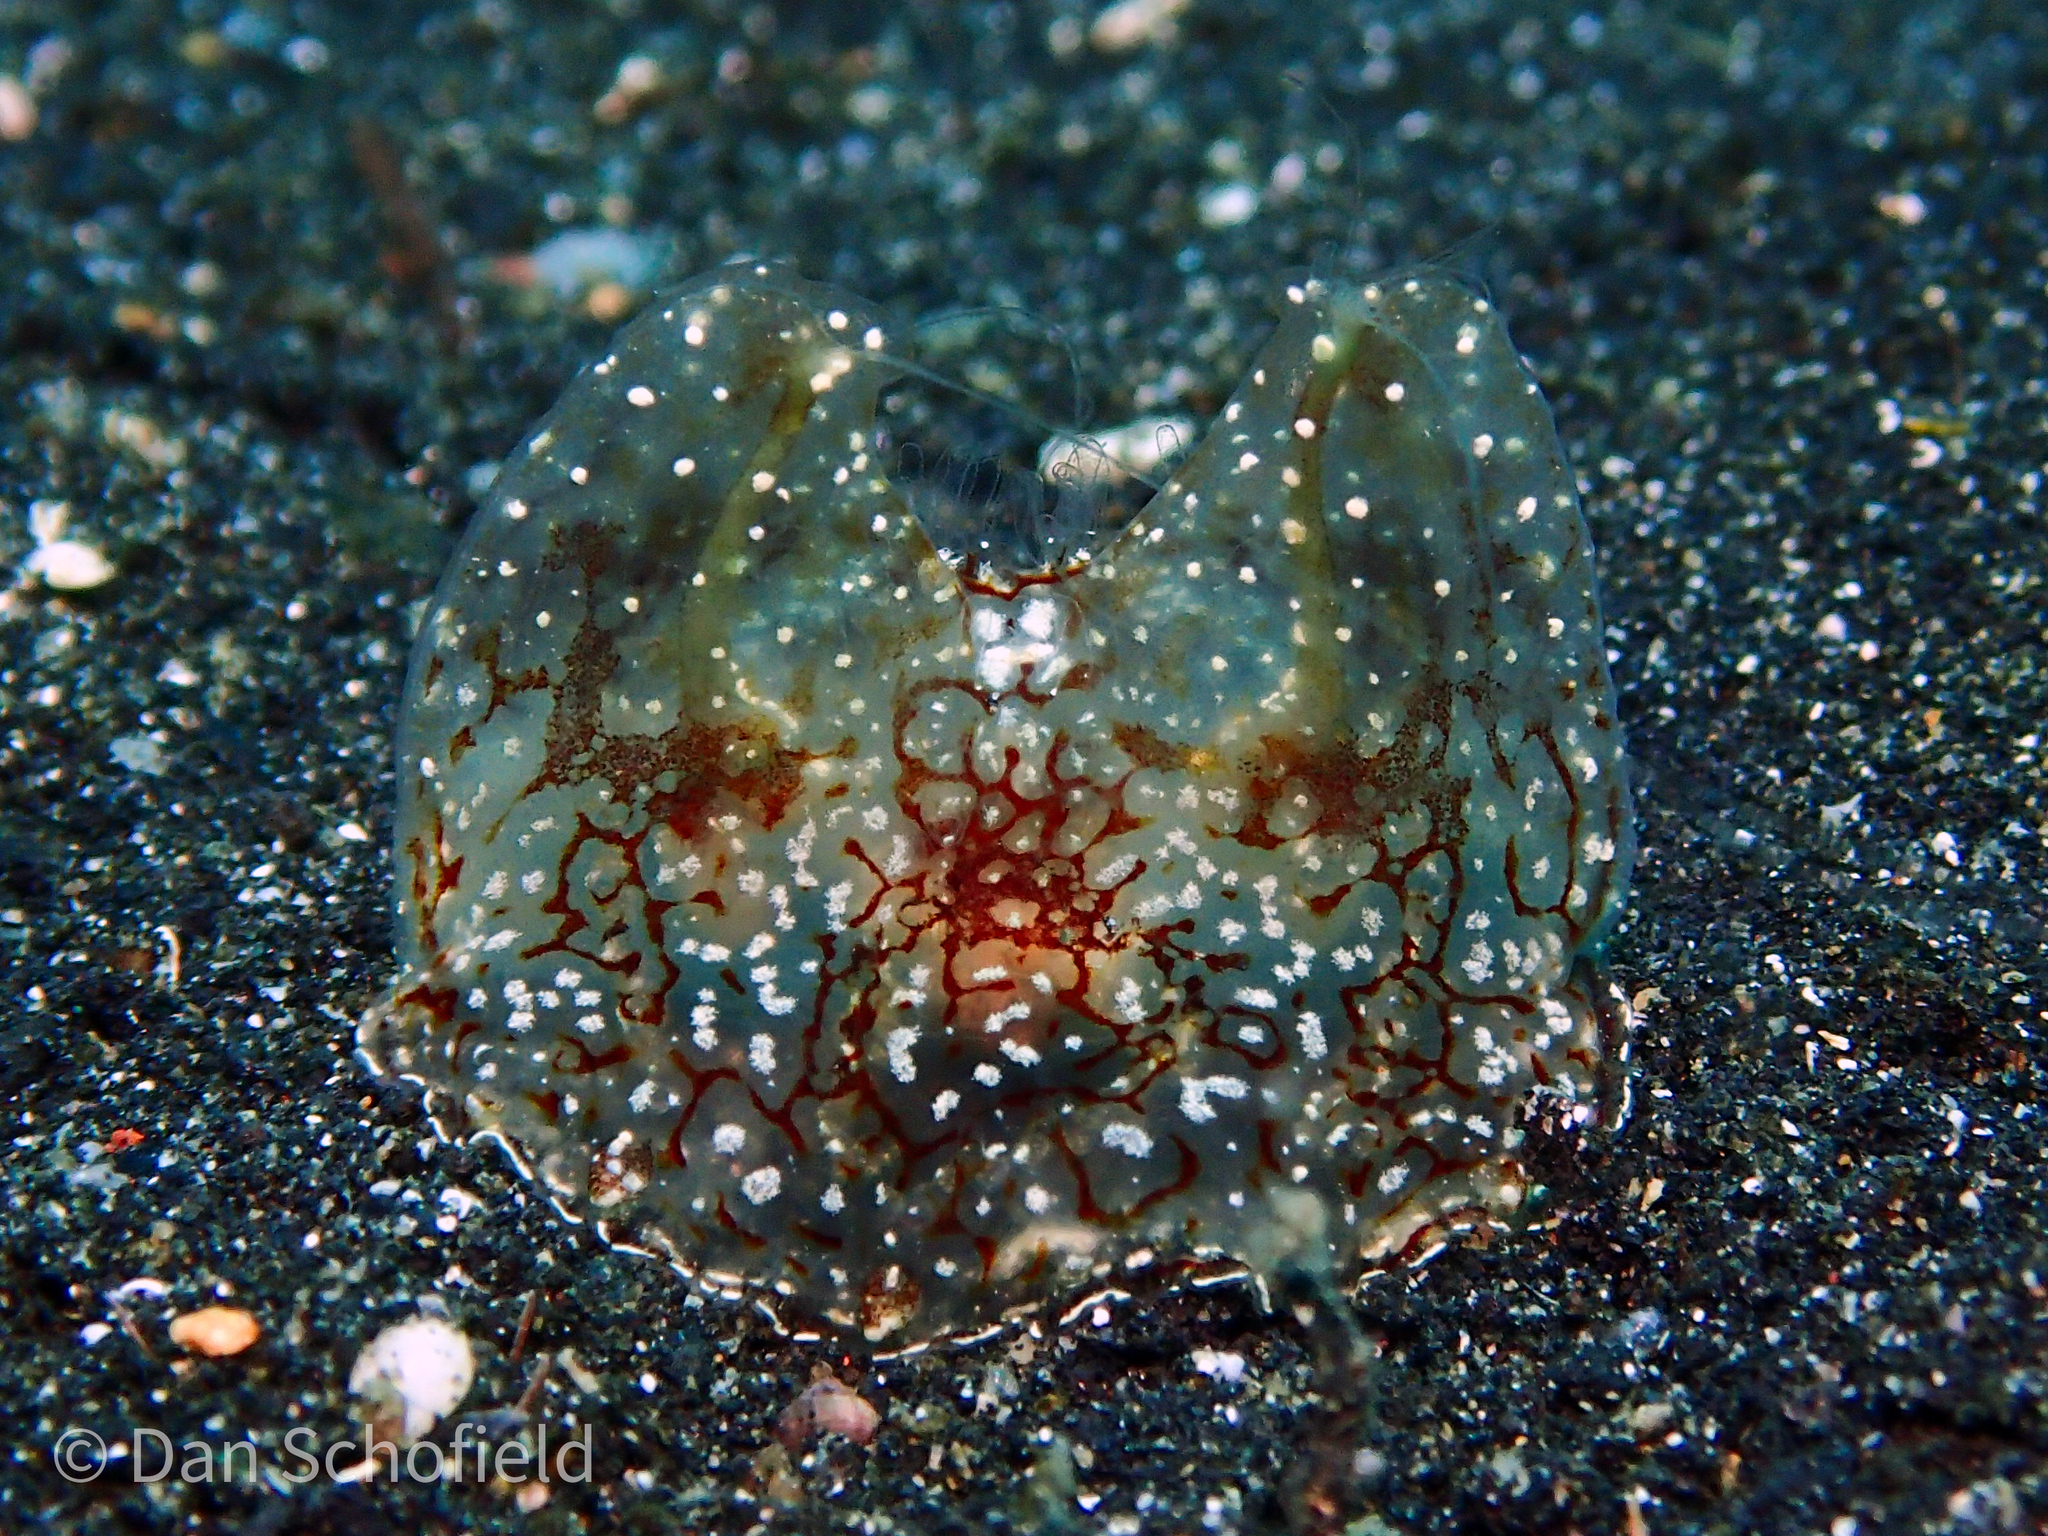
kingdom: Animalia
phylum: Ctenophora
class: Tentaculata
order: Platyctenida
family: Coeloplanidae
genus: Coeloplana
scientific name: Coeloplana meteoris
